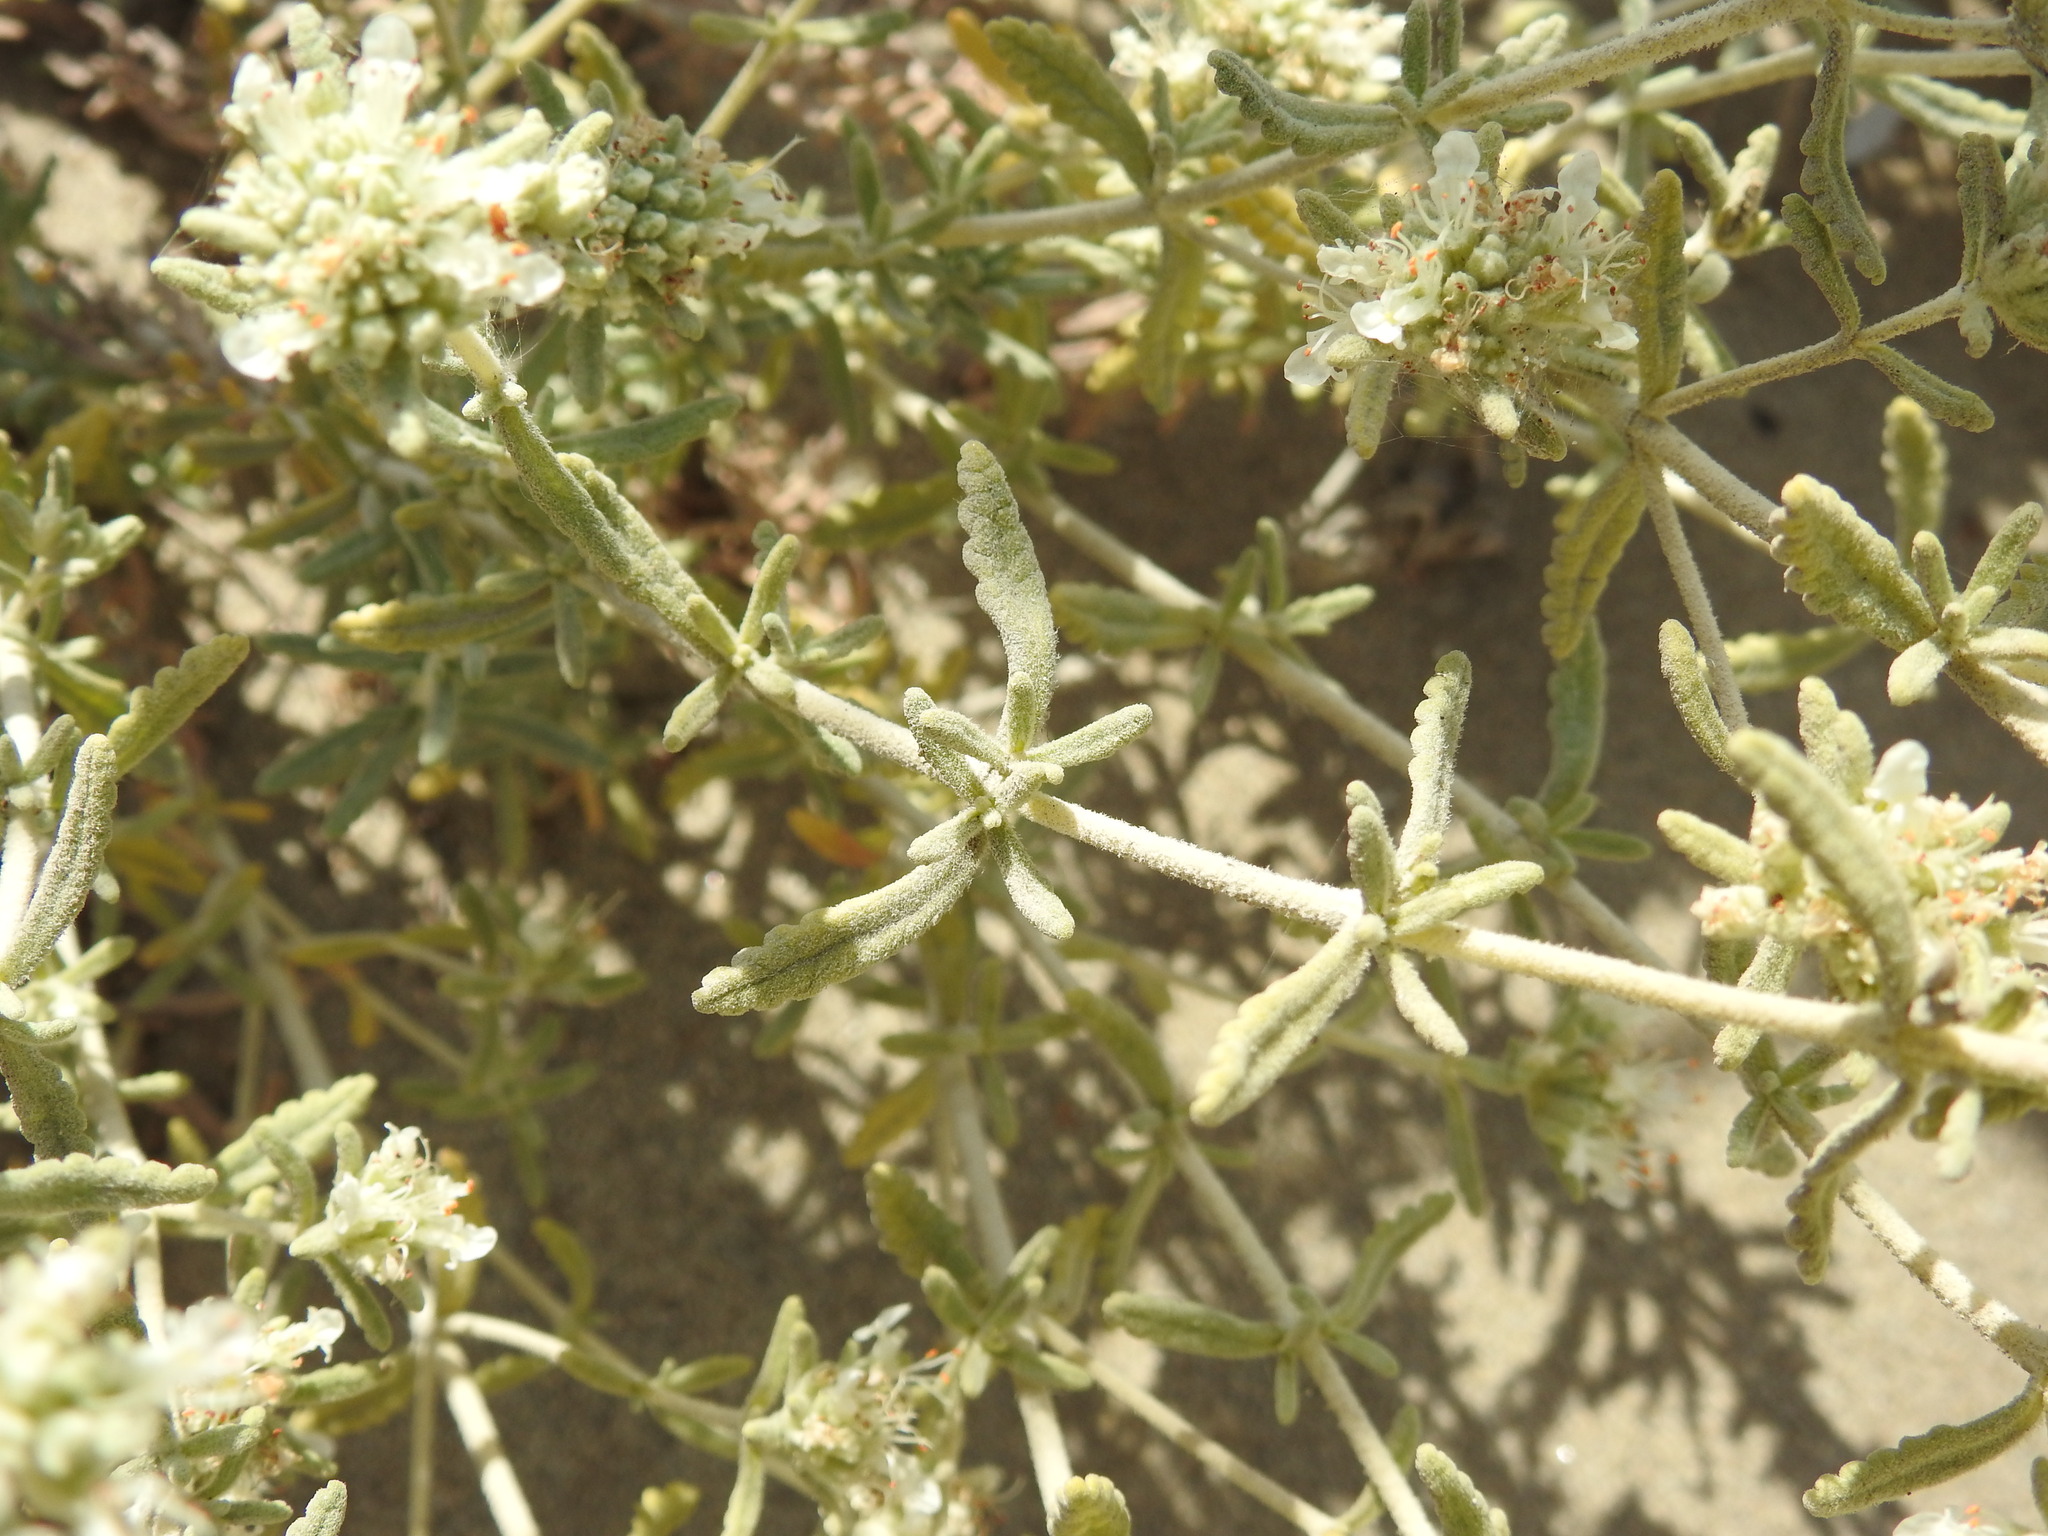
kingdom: Plantae
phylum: Tracheophyta
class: Magnoliopsida
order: Lamiales
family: Lamiaceae
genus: Teucrium
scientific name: Teucrium dunense
